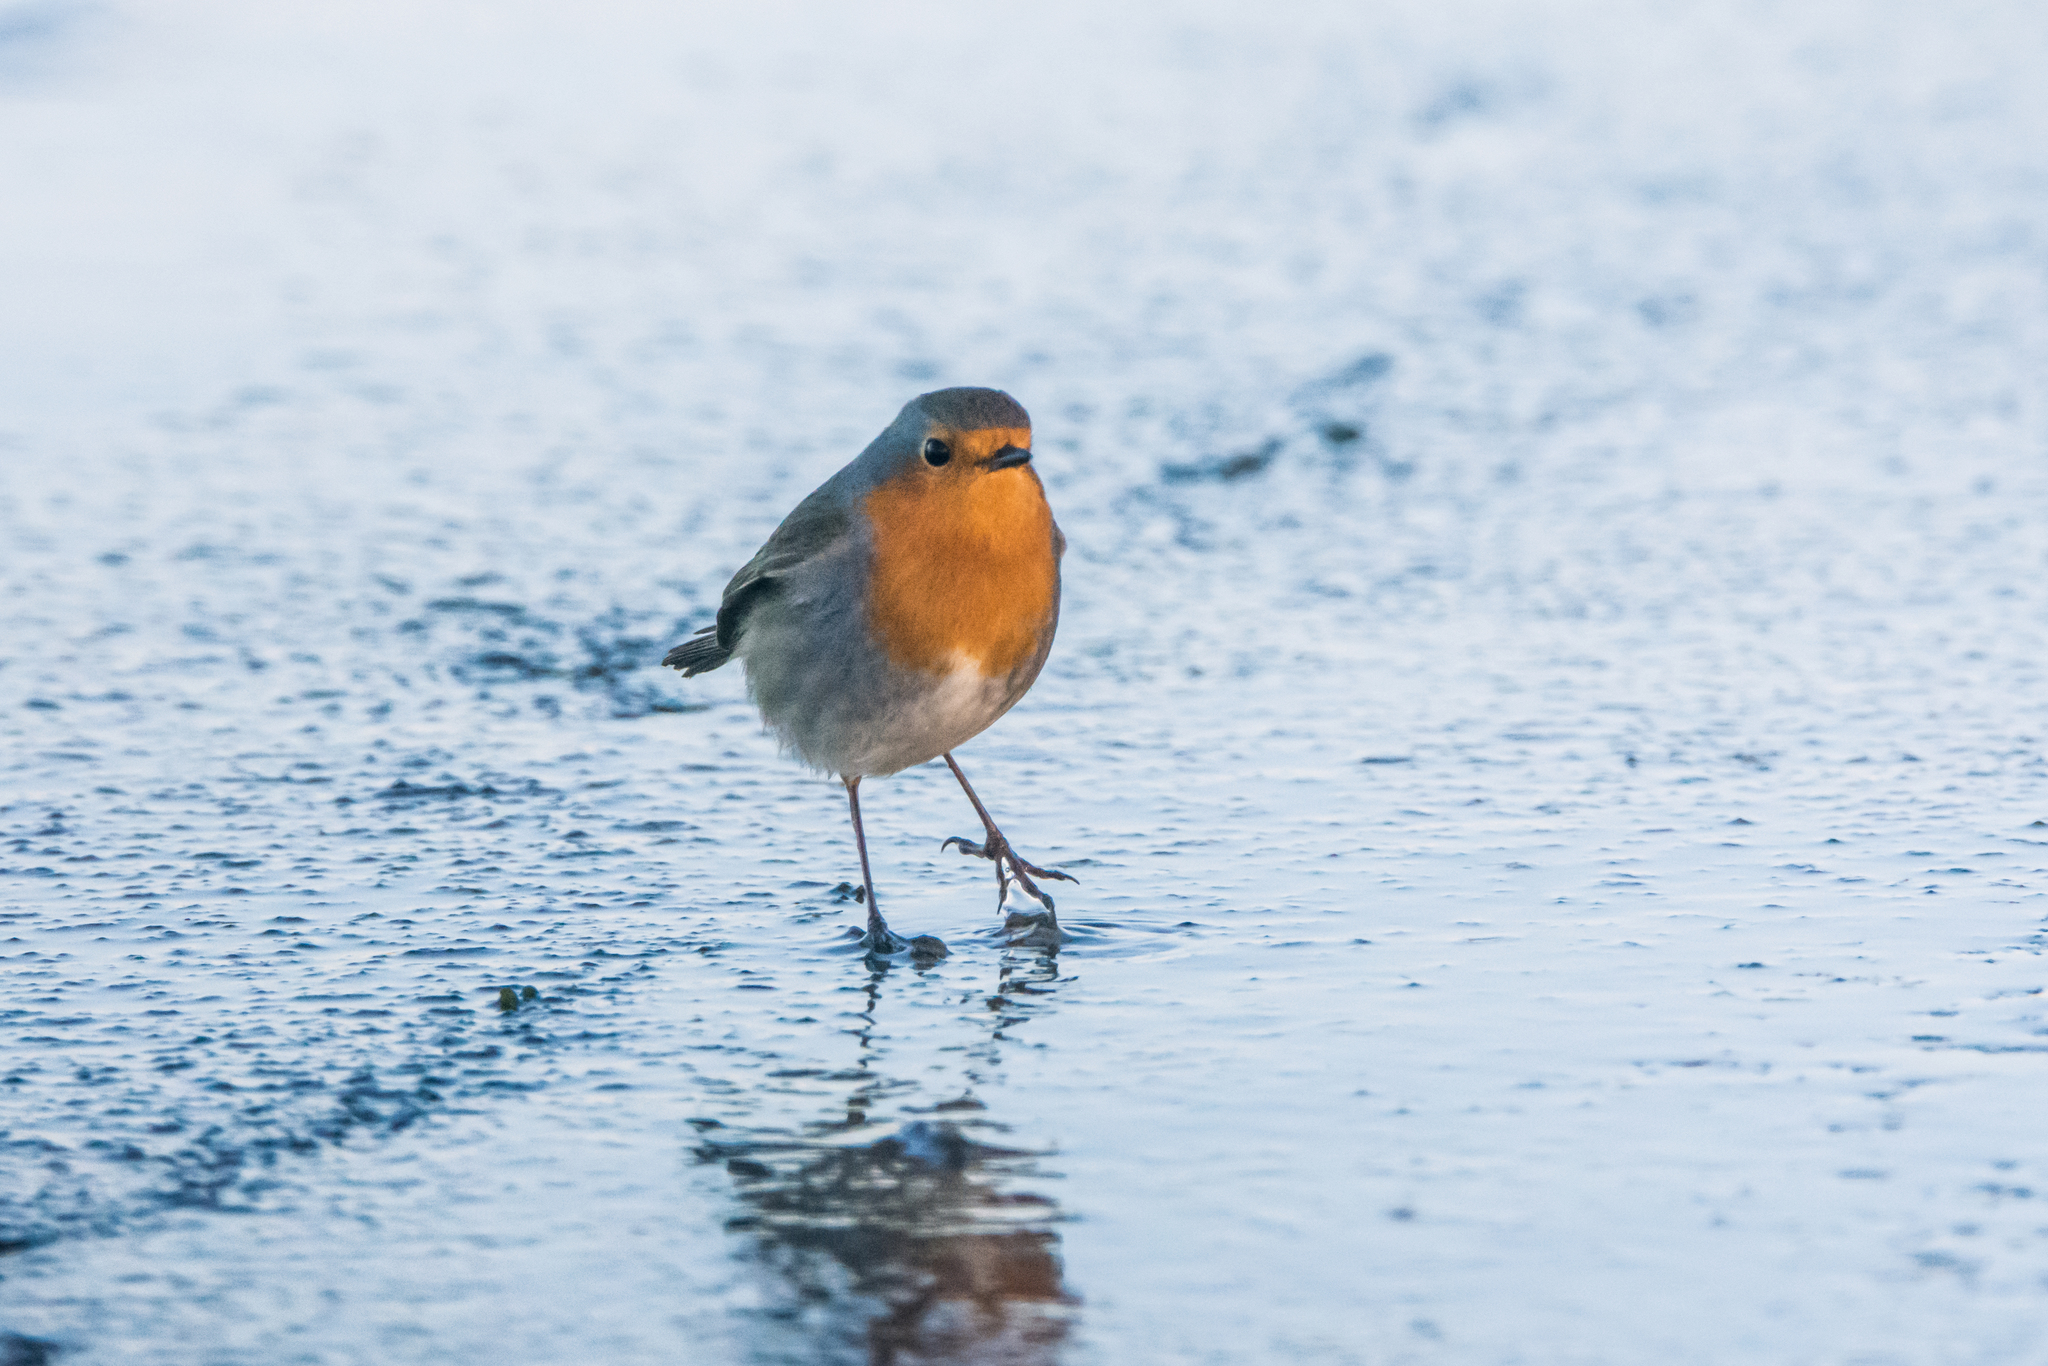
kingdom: Animalia
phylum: Chordata
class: Aves
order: Passeriformes
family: Muscicapidae
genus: Erithacus
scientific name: Erithacus rubecula
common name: European robin
